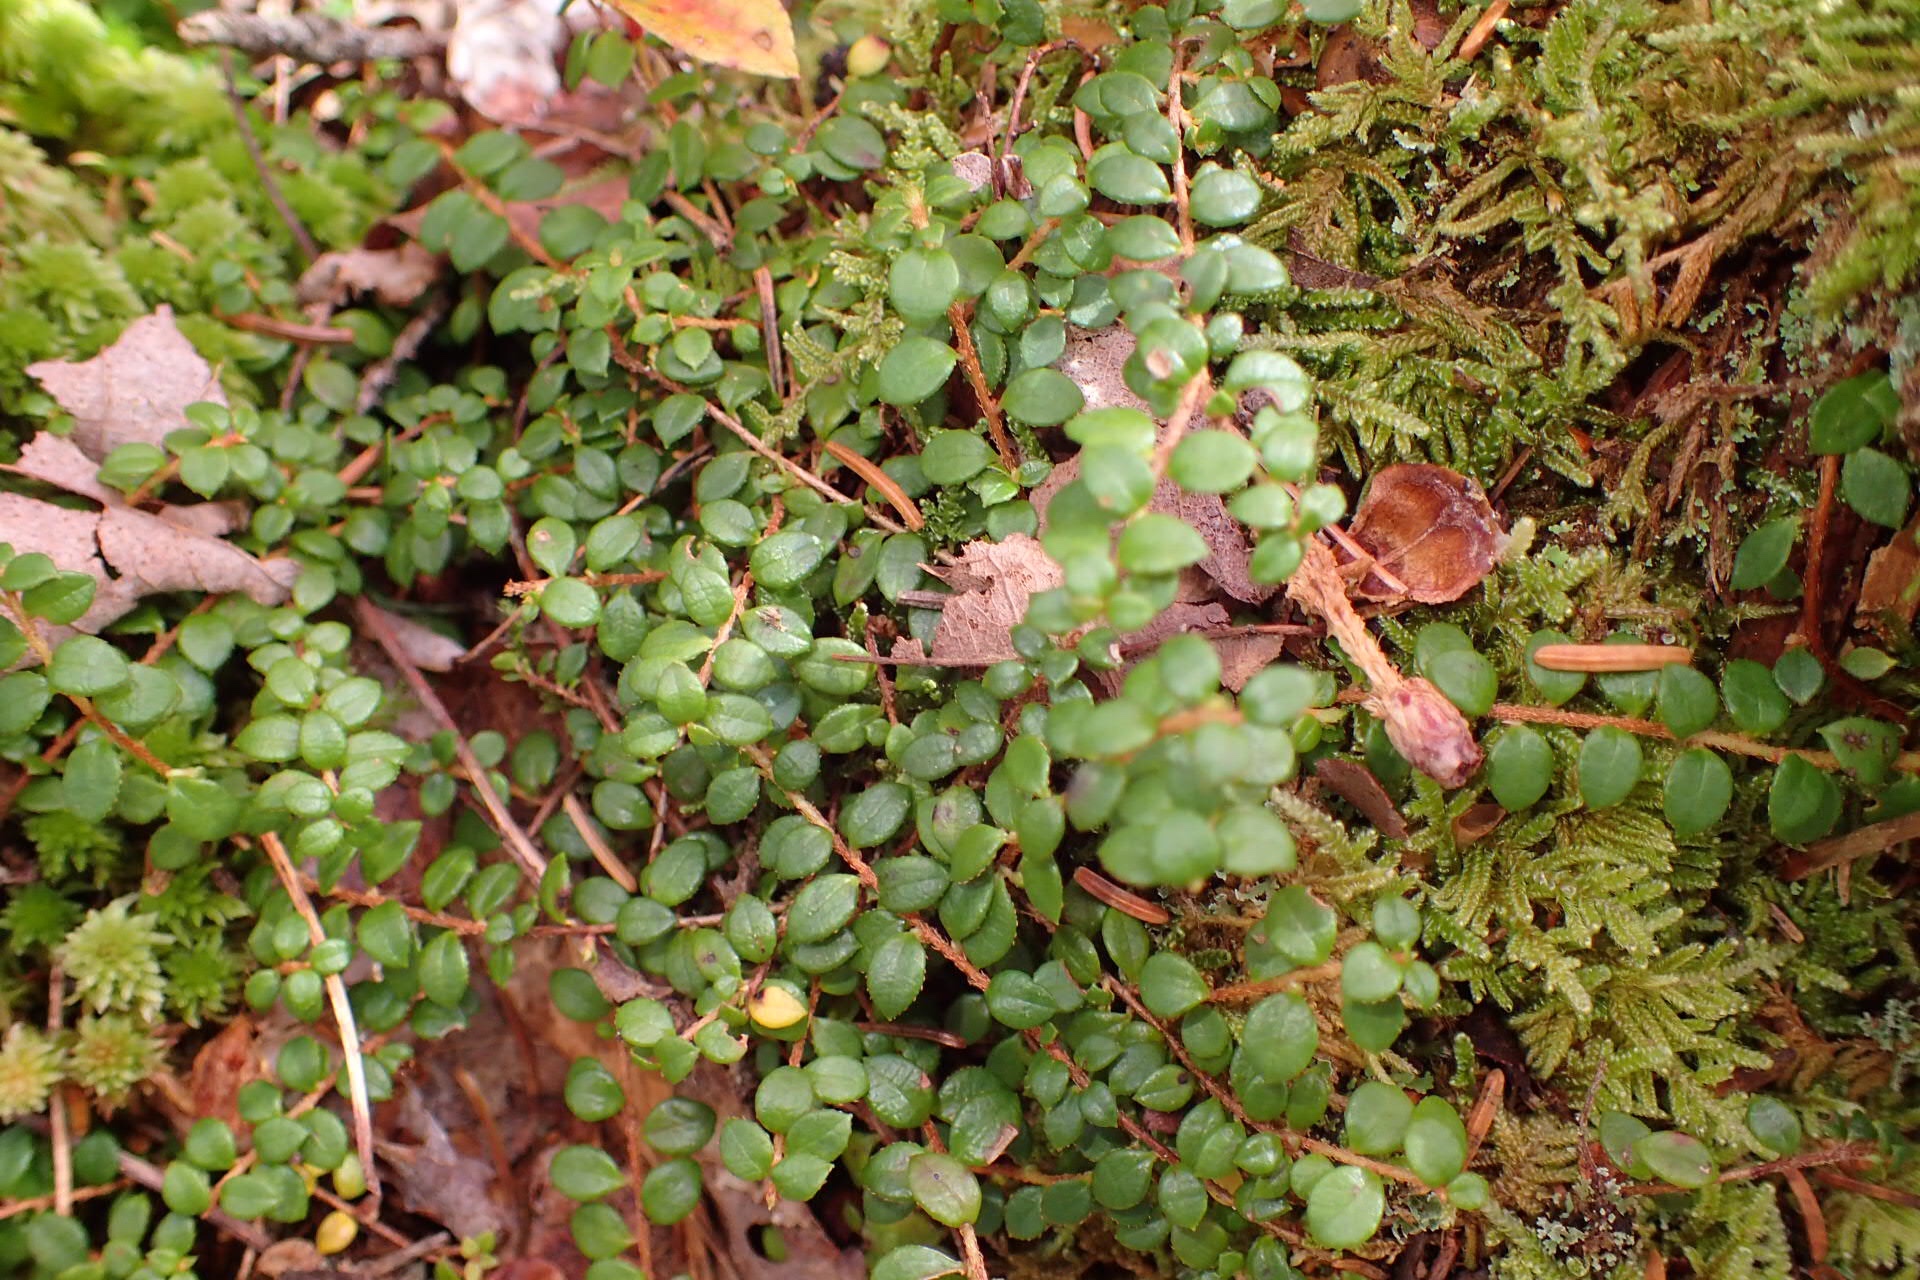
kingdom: Plantae
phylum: Tracheophyta
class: Magnoliopsida
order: Ericales
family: Ericaceae
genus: Gaultheria
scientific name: Gaultheria hispidula
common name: Cancer wintergreen
